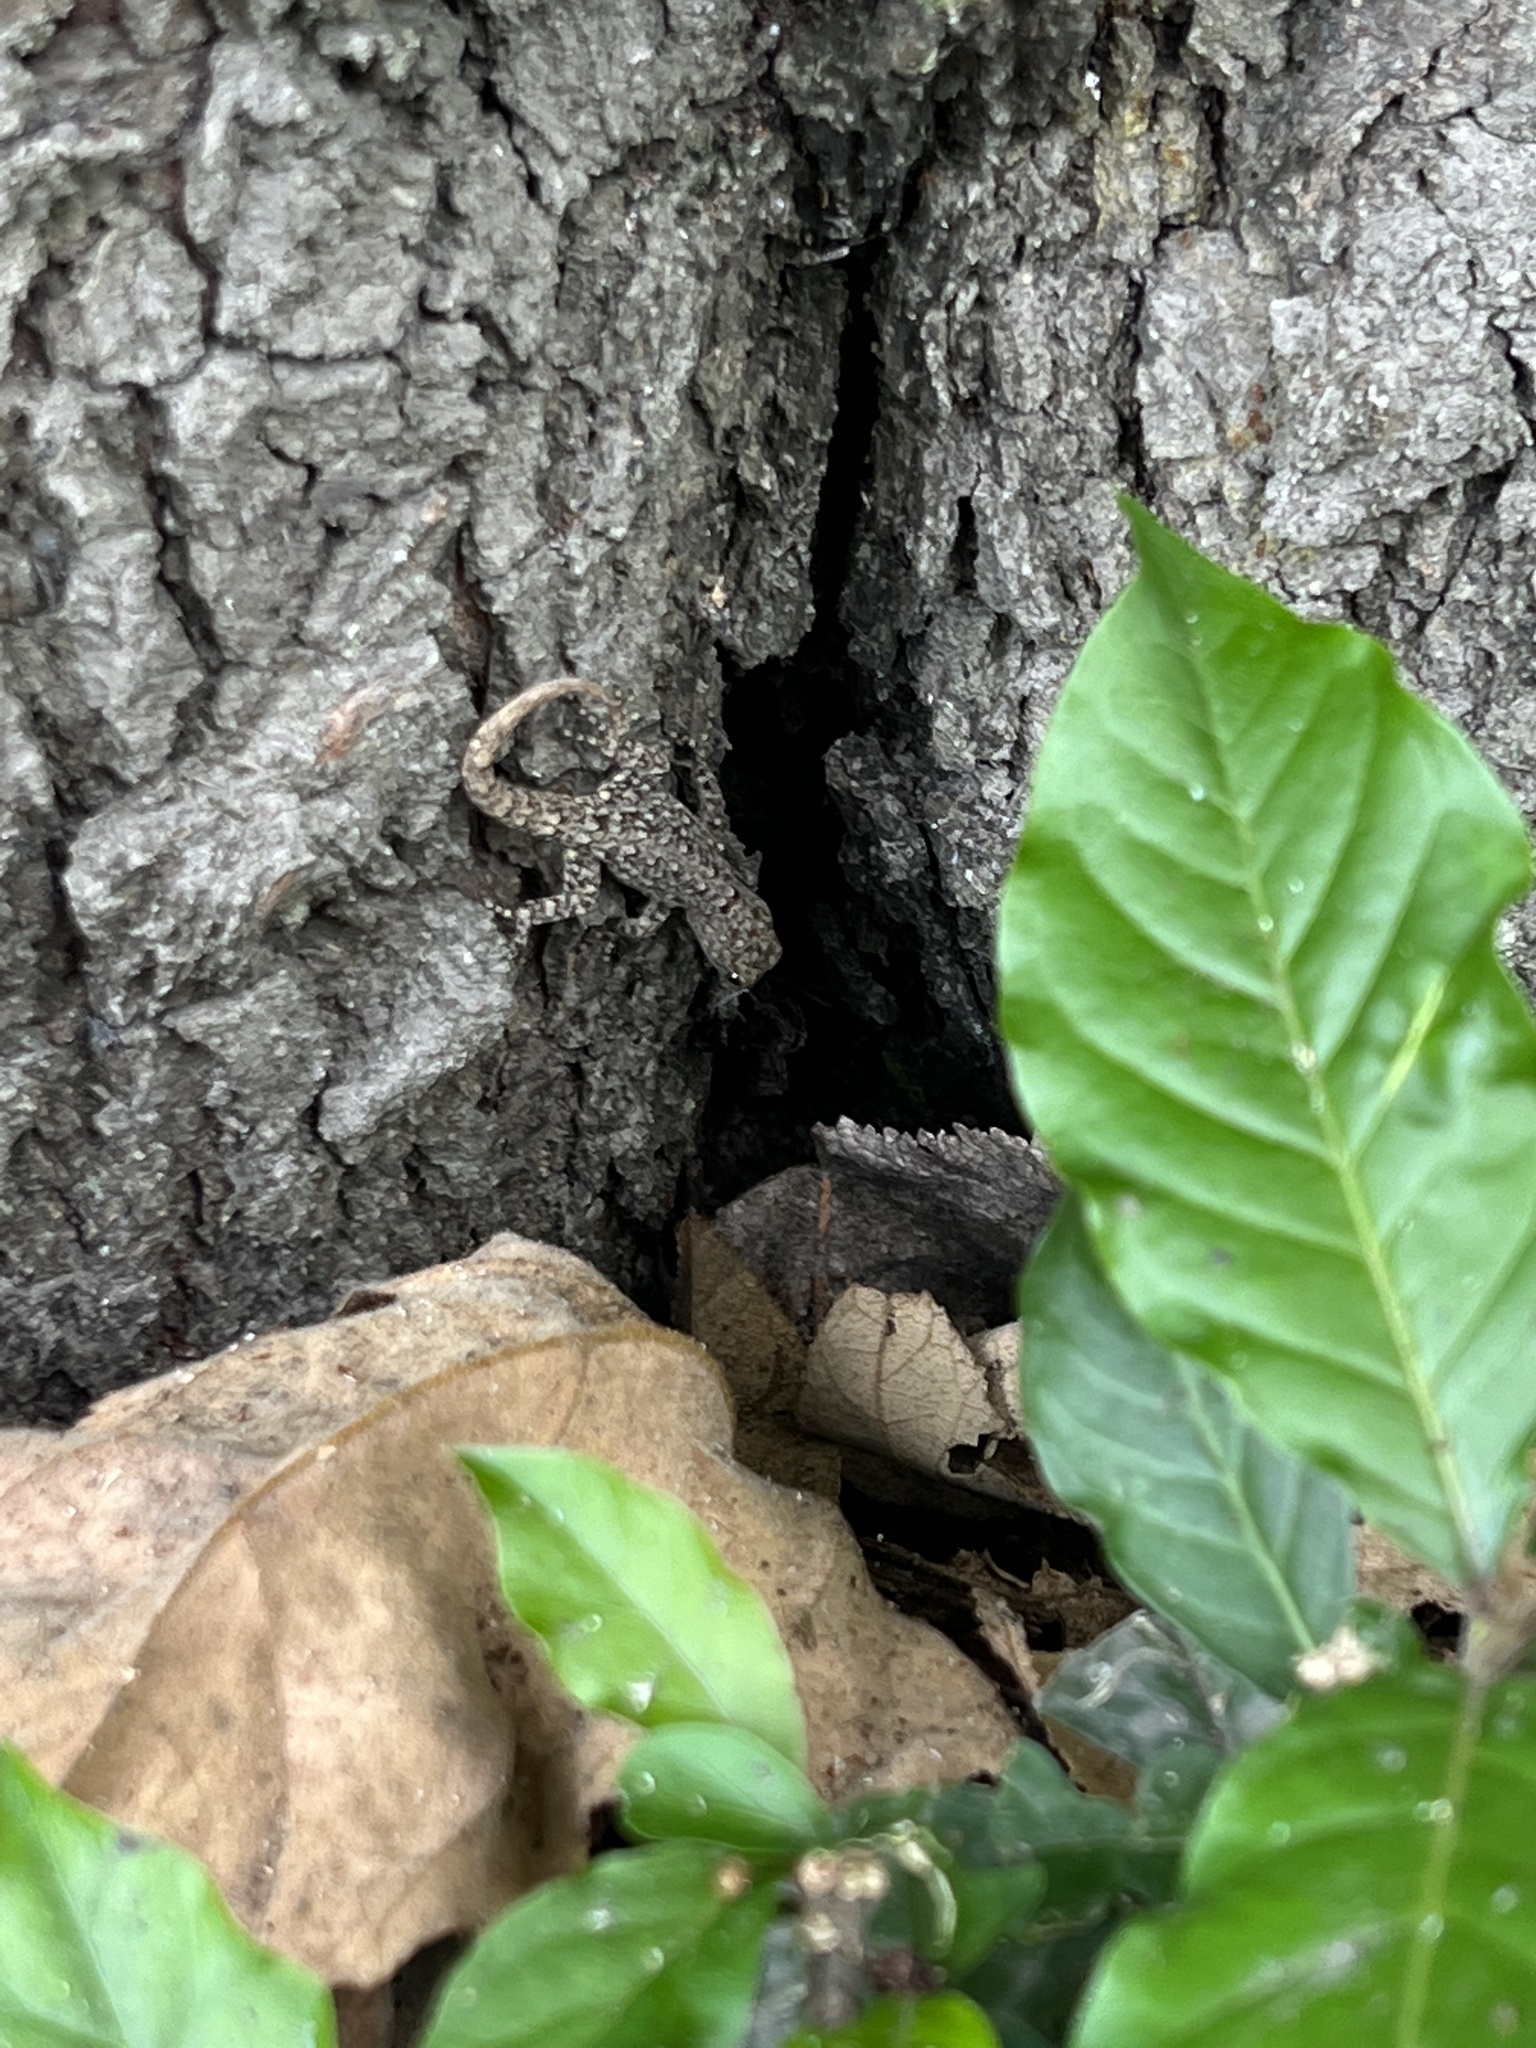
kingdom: Animalia
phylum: Chordata
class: Squamata
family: Sphaerodactylidae
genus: Gonatodes
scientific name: Gonatodes albogularis
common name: Yellow-headed gecko
